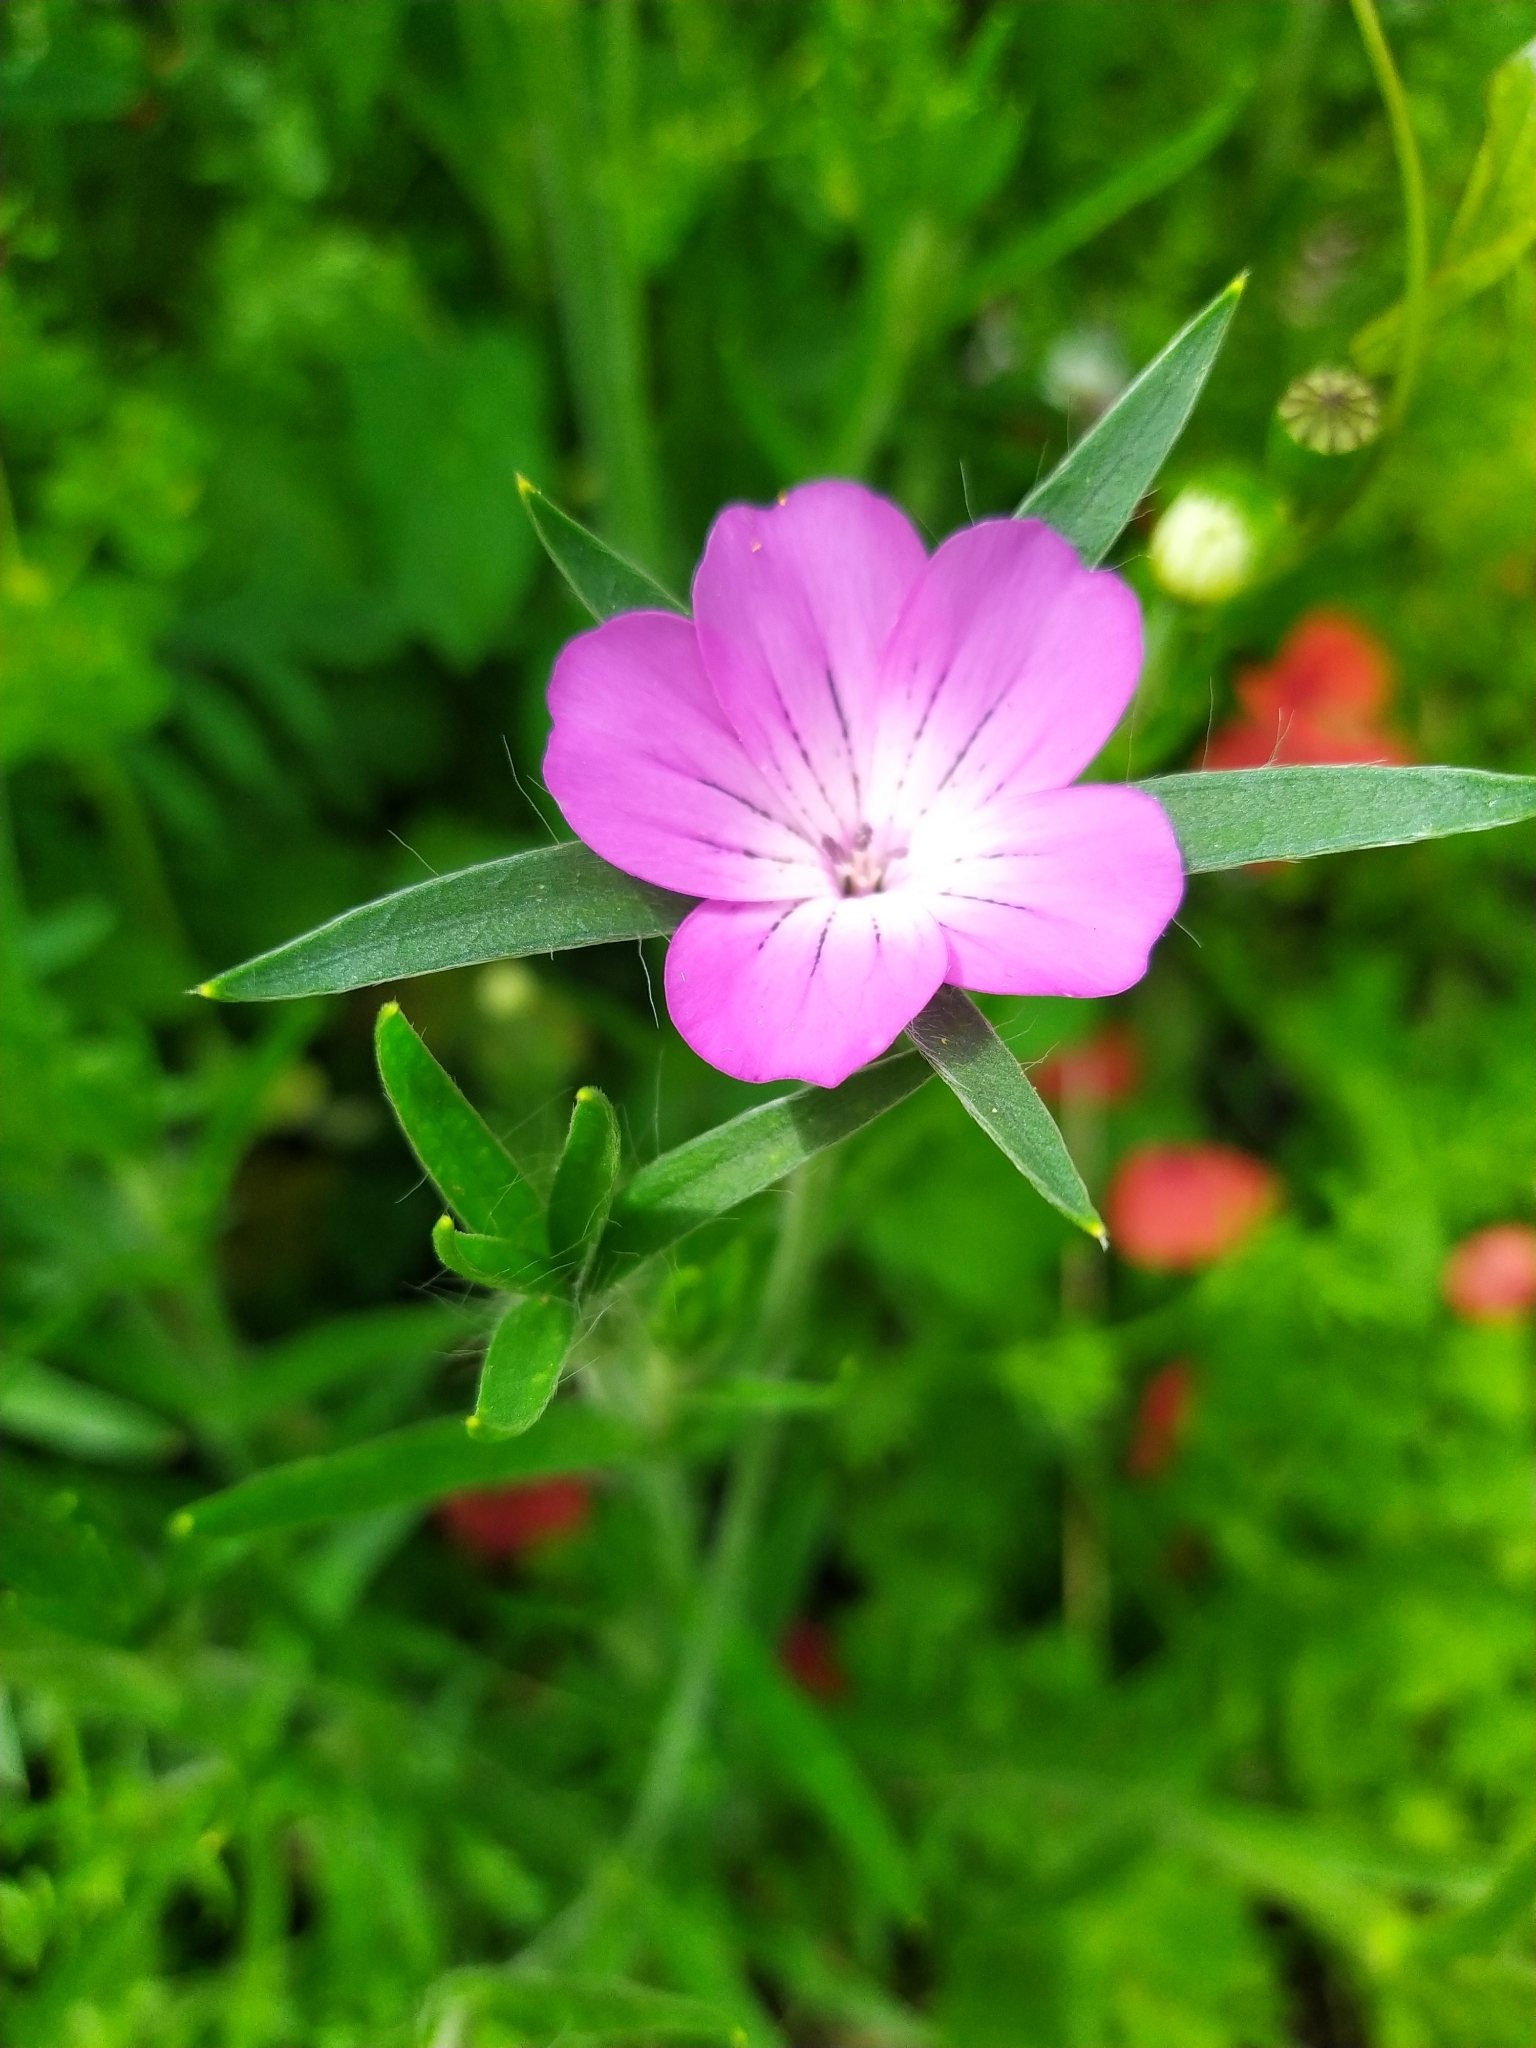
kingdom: Plantae
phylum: Tracheophyta
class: Magnoliopsida
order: Caryophyllales
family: Caryophyllaceae
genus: Agrostemma
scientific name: Agrostemma githago
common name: Common corncockle
